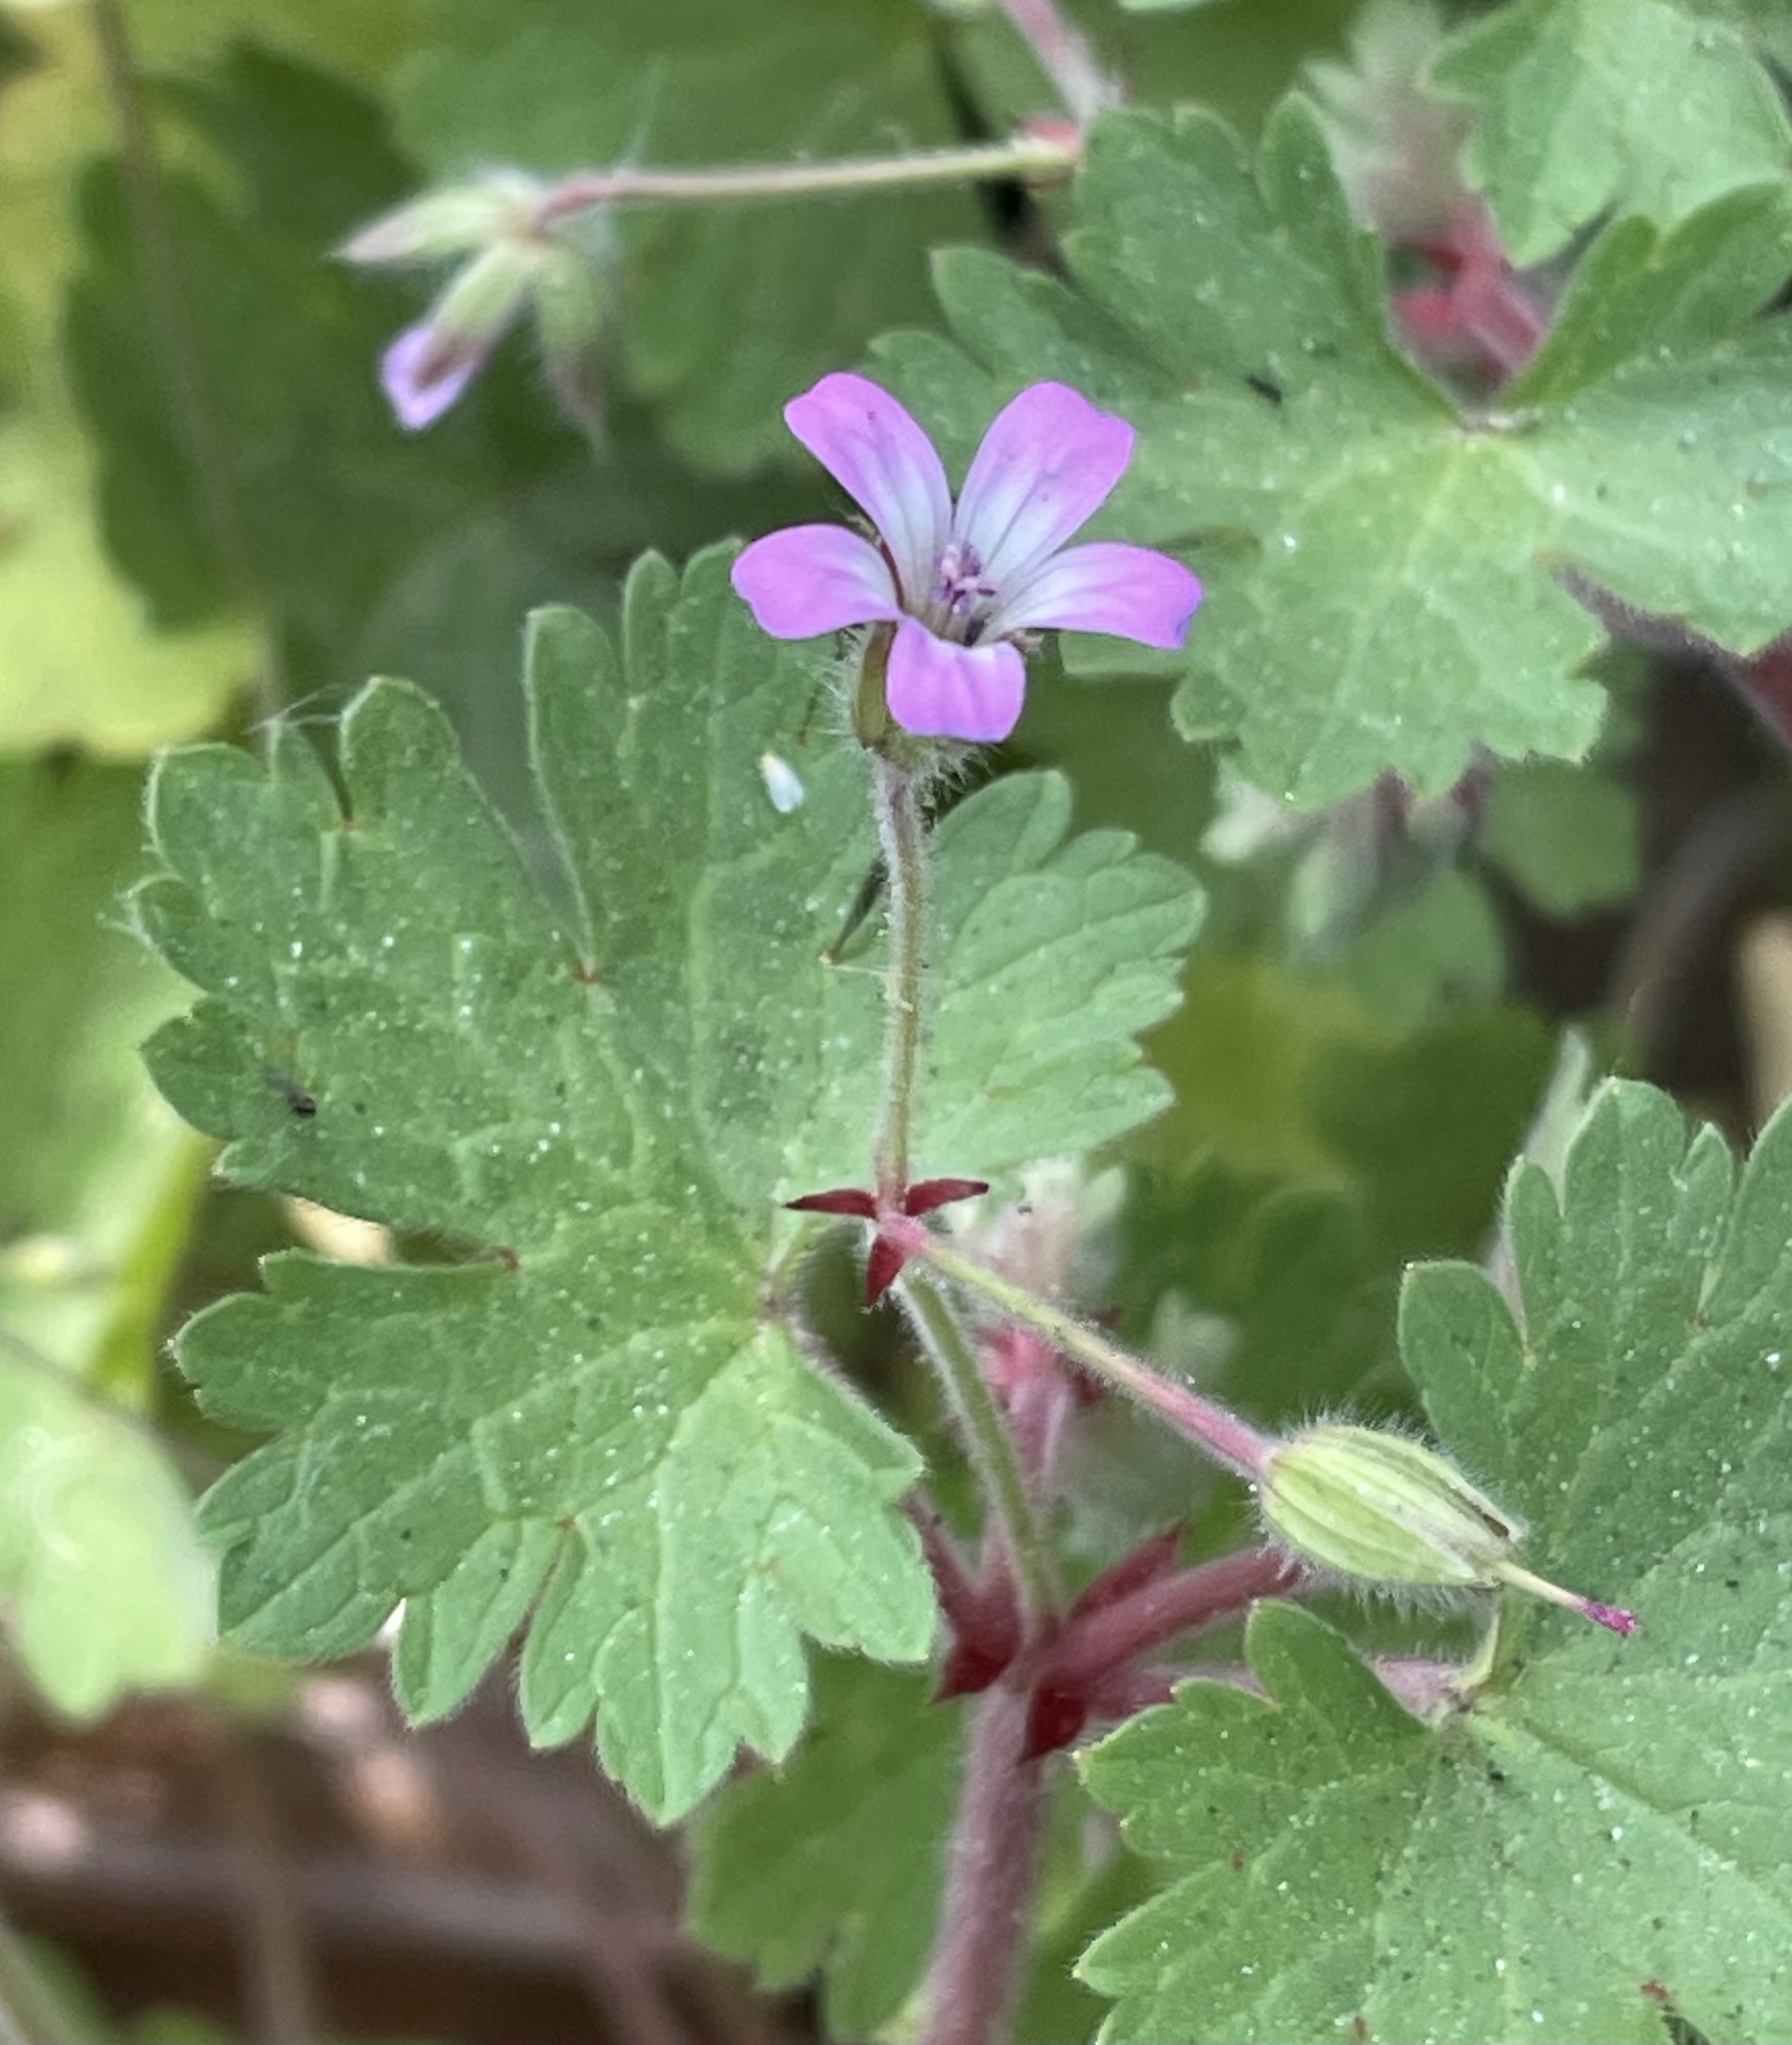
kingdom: Plantae
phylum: Tracheophyta
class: Magnoliopsida
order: Geraniales
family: Geraniaceae
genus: Geranium
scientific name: Geranium rotundifolium
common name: Round-leaved crane's-bill
